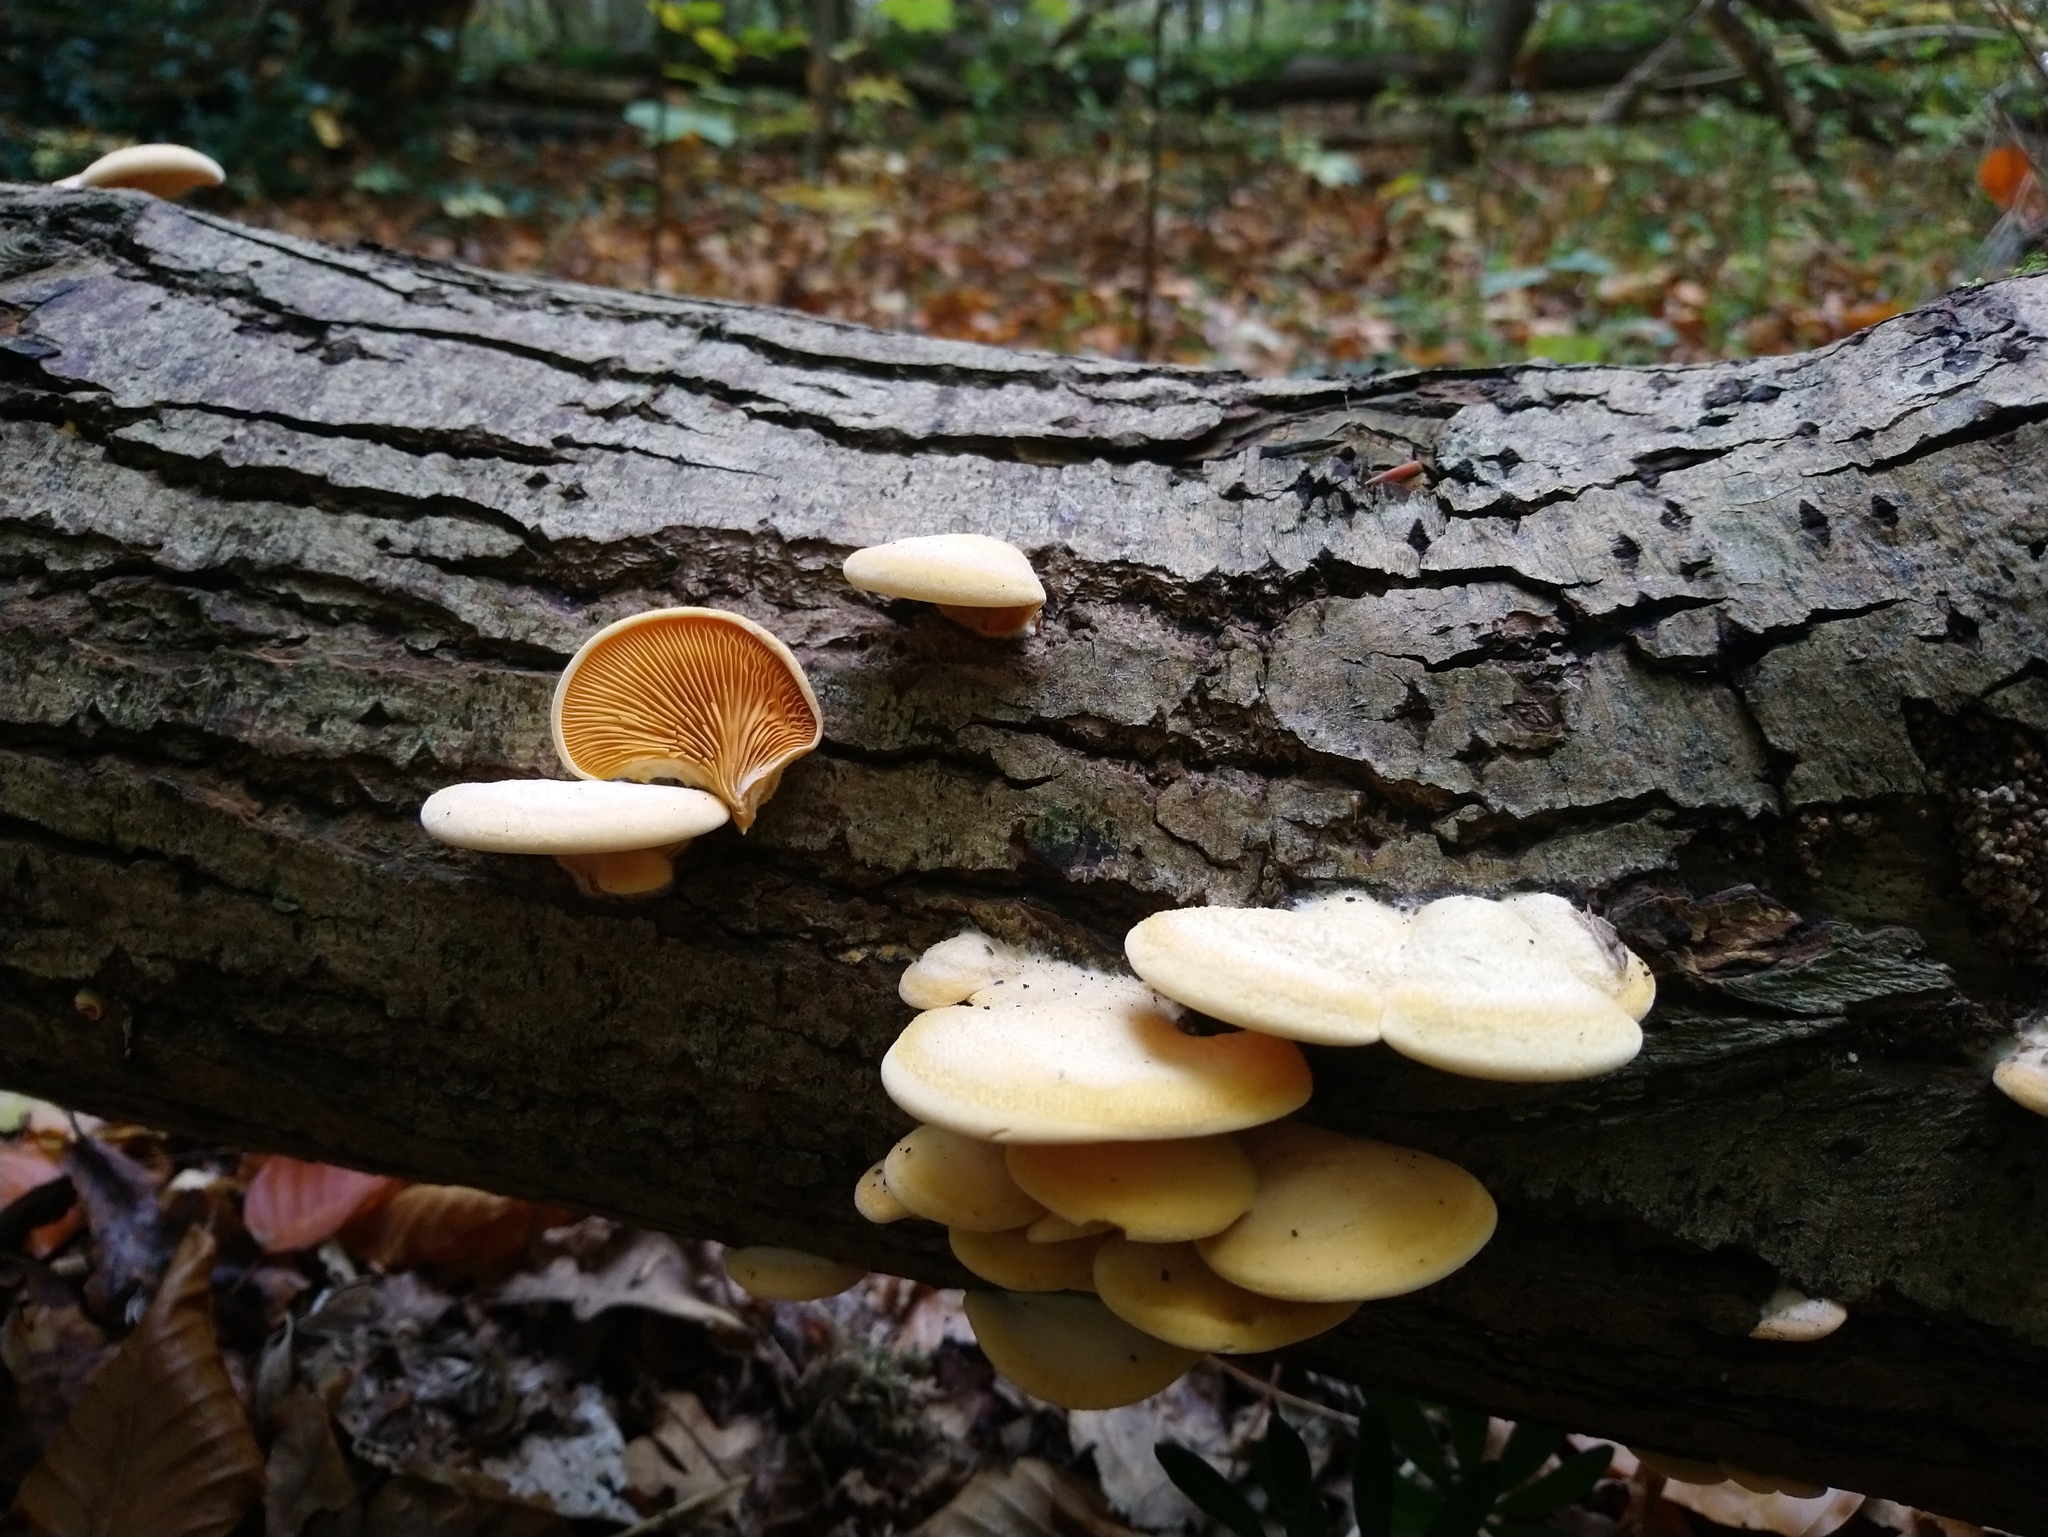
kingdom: Fungi
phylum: Basidiomycota
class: Agaricomycetes
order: Agaricales
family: Phyllotopsidaceae
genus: Phyllotopsis
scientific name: Phyllotopsis nidulans
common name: Orange mock oyster
